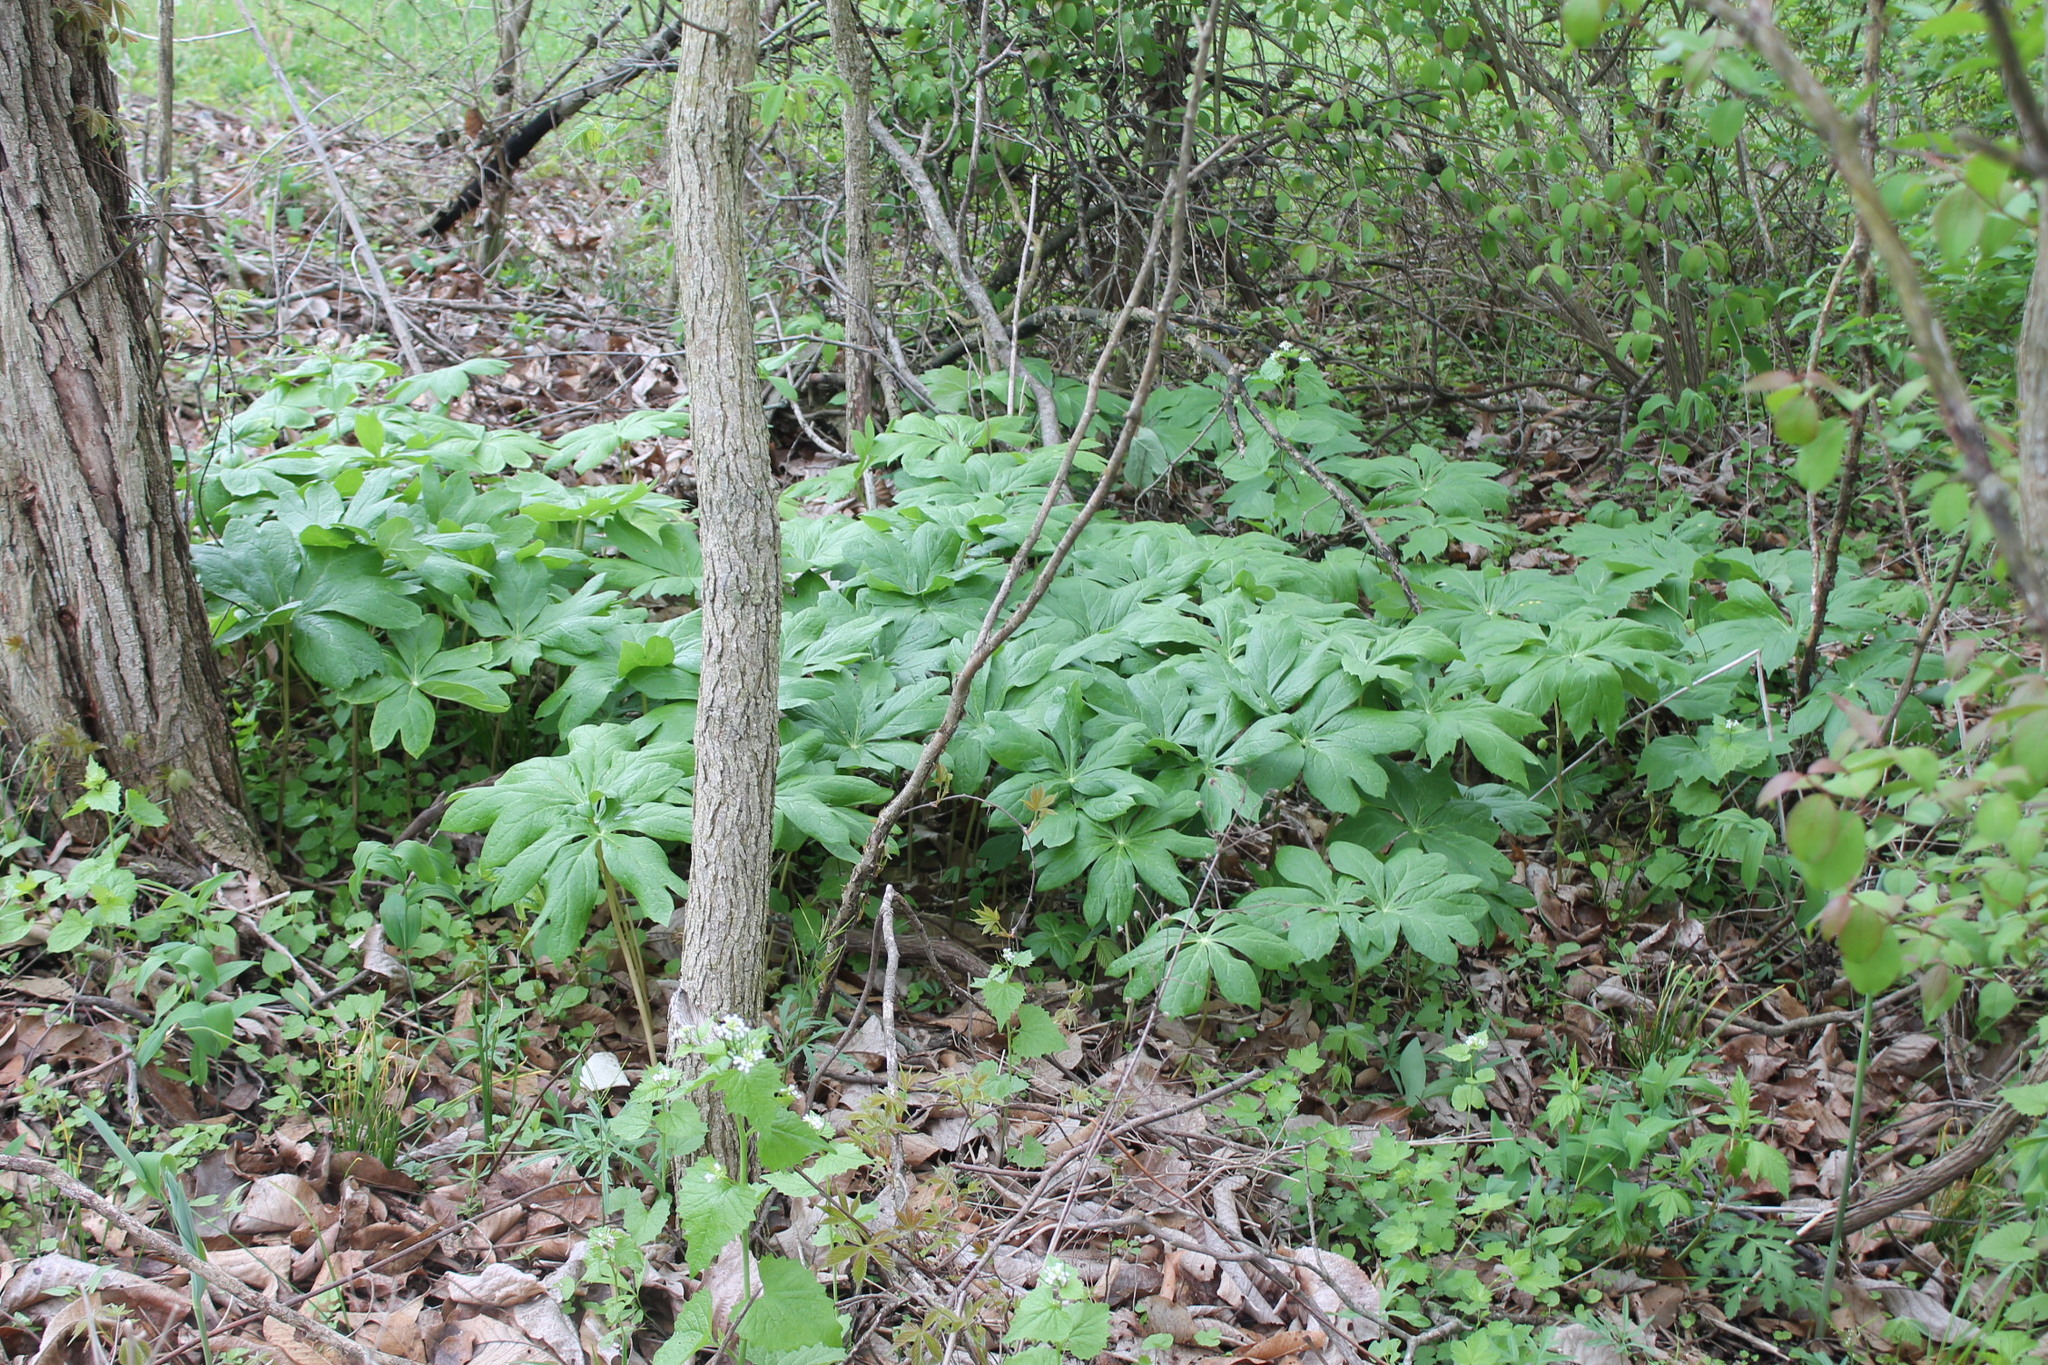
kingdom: Plantae
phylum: Tracheophyta
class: Magnoliopsida
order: Ranunculales
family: Berberidaceae
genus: Podophyllum
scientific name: Podophyllum peltatum
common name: Wild mandrake
